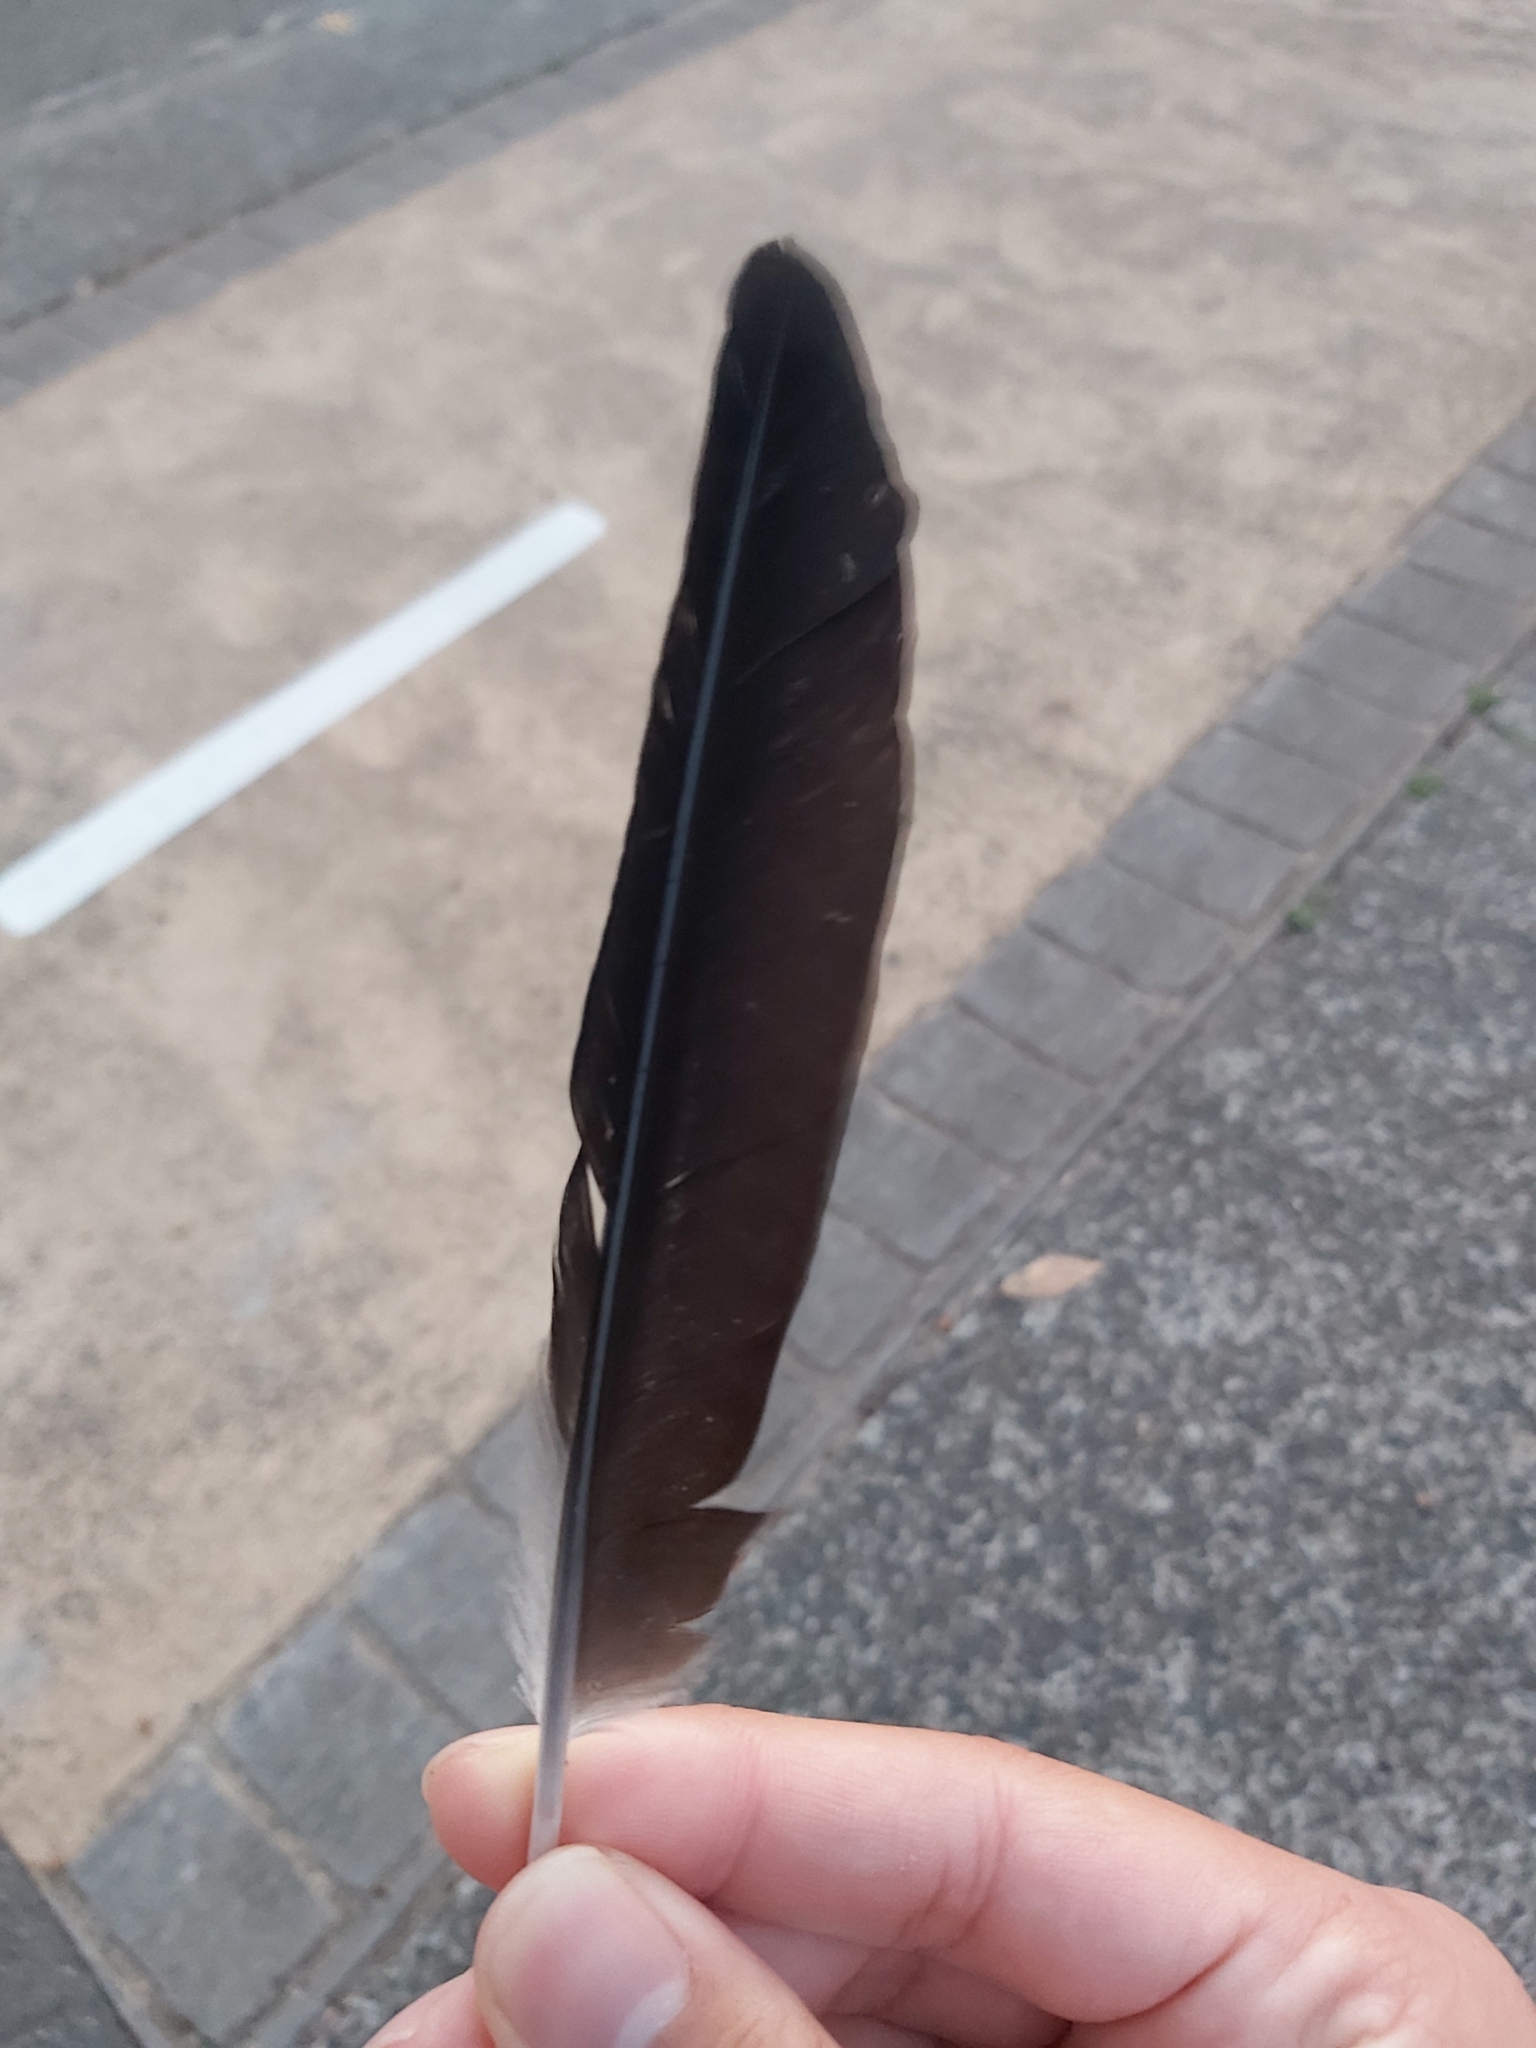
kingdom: Animalia
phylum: Chordata
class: Aves
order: Passeriformes
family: Cracticidae
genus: Gymnorhina
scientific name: Gymnorhina tibicen
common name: Australian magpie
